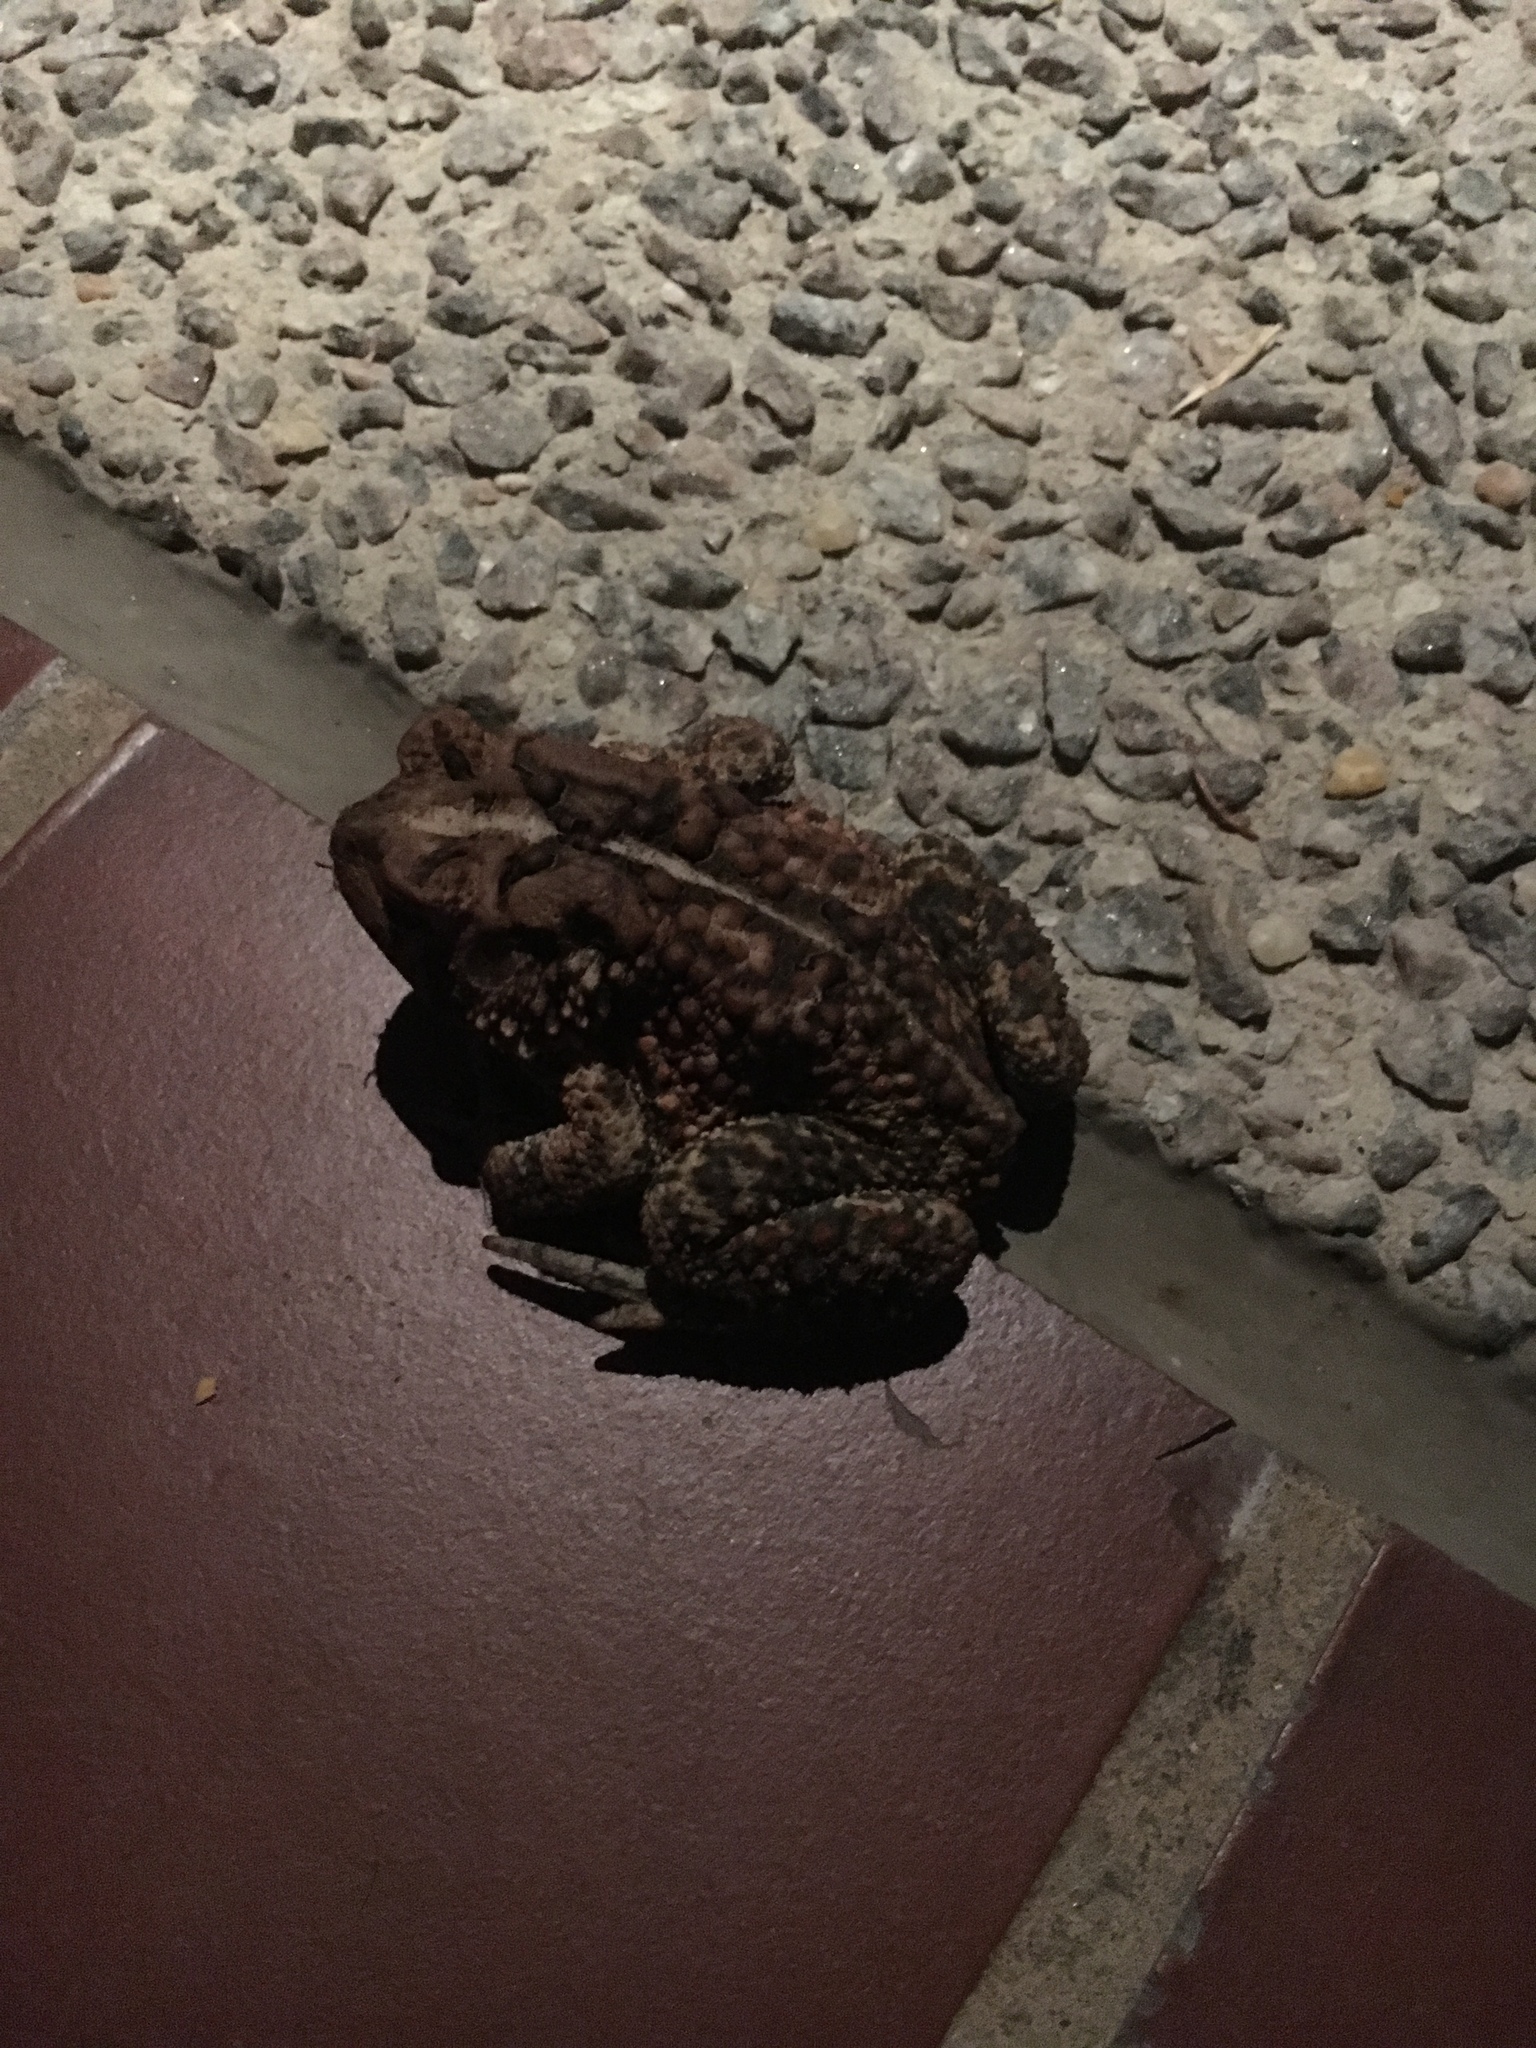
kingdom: Animalia
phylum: Chordata
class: Amphibia
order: Anura
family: Bufonidae
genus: Anaxyrus
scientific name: Anaxyrus americanus
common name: American toad
